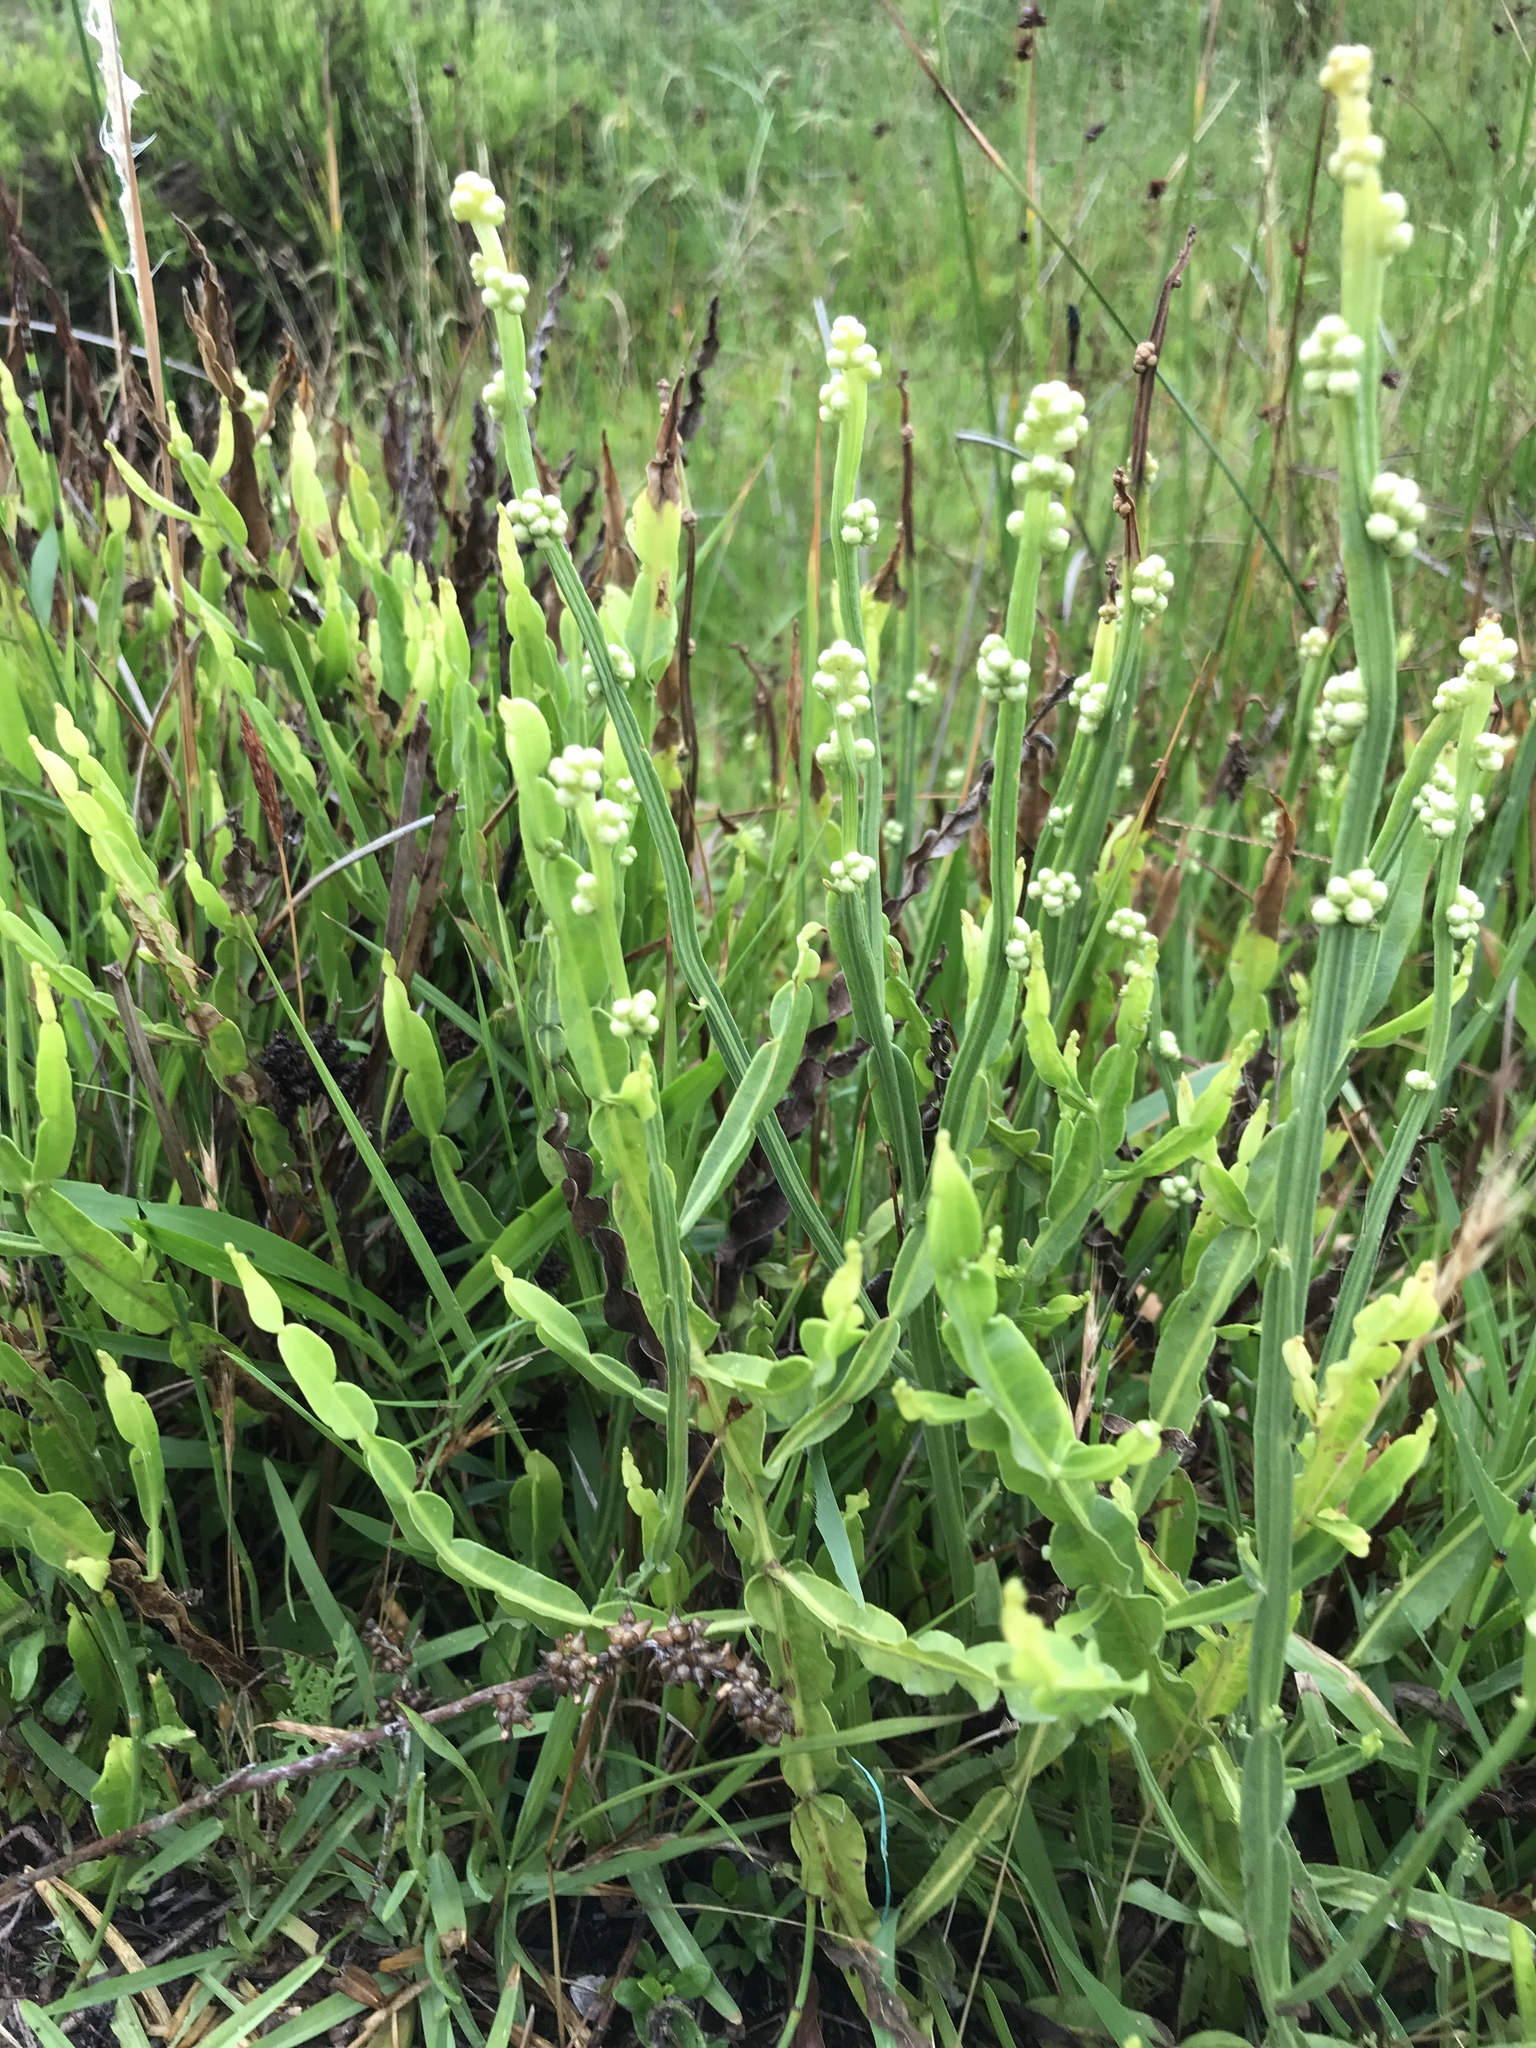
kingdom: Plantae
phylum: Tracheophyta
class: Magnoliopsida
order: Asterales
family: Asteraceae
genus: Baccharis
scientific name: Baccharis trimera
